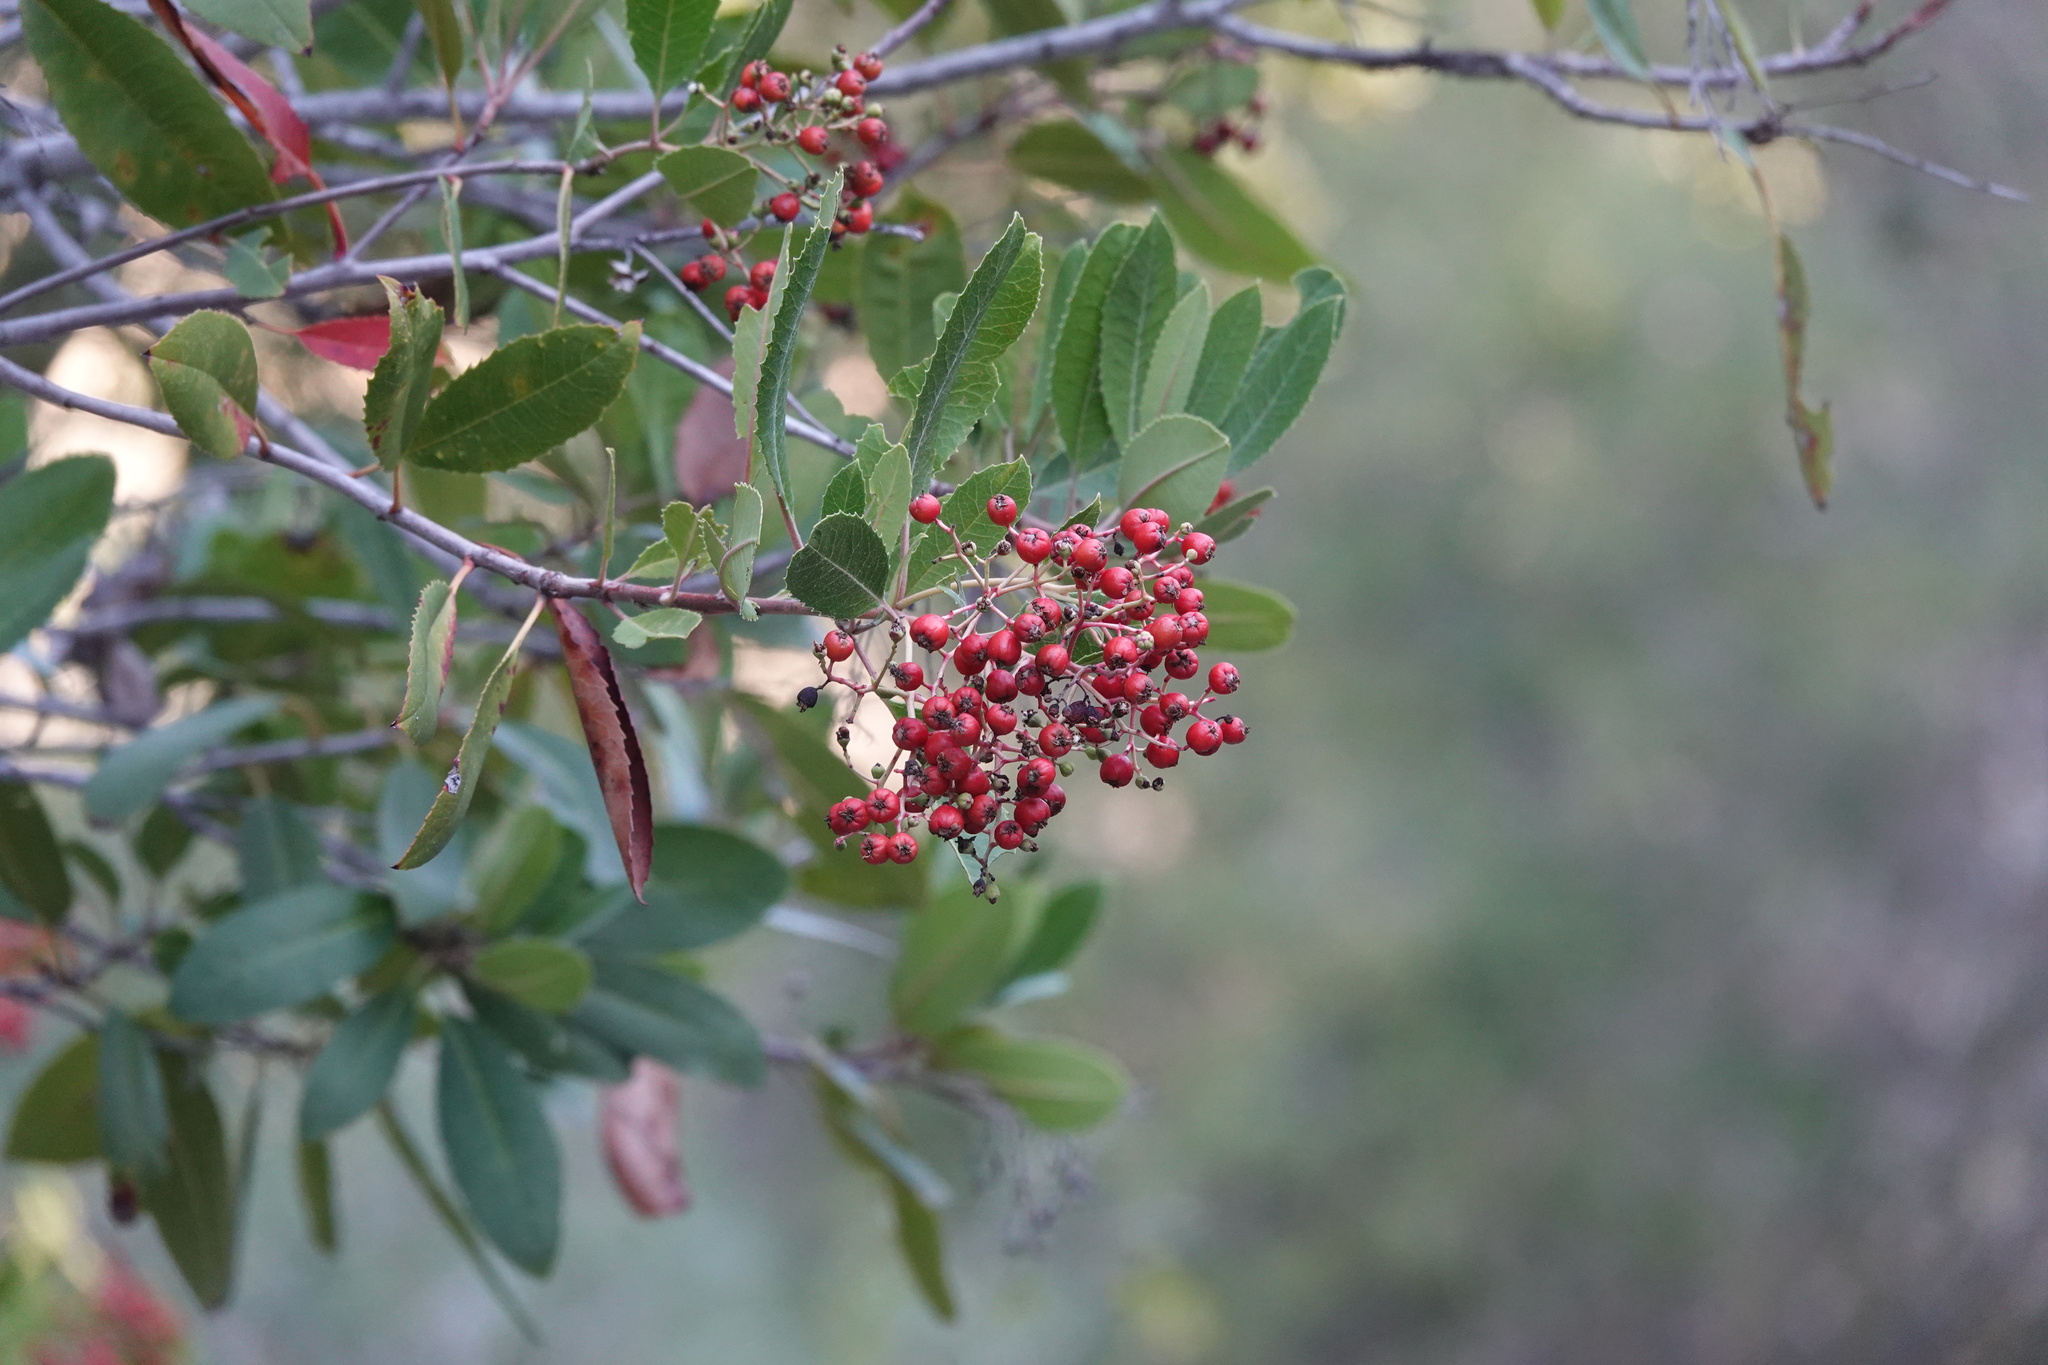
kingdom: Plantae
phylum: Tracheophyta
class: Magnoliopsida
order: Rosales
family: Rosaceae
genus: Heteromeles
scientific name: Heteromeles arbutifolia
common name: California-holly
